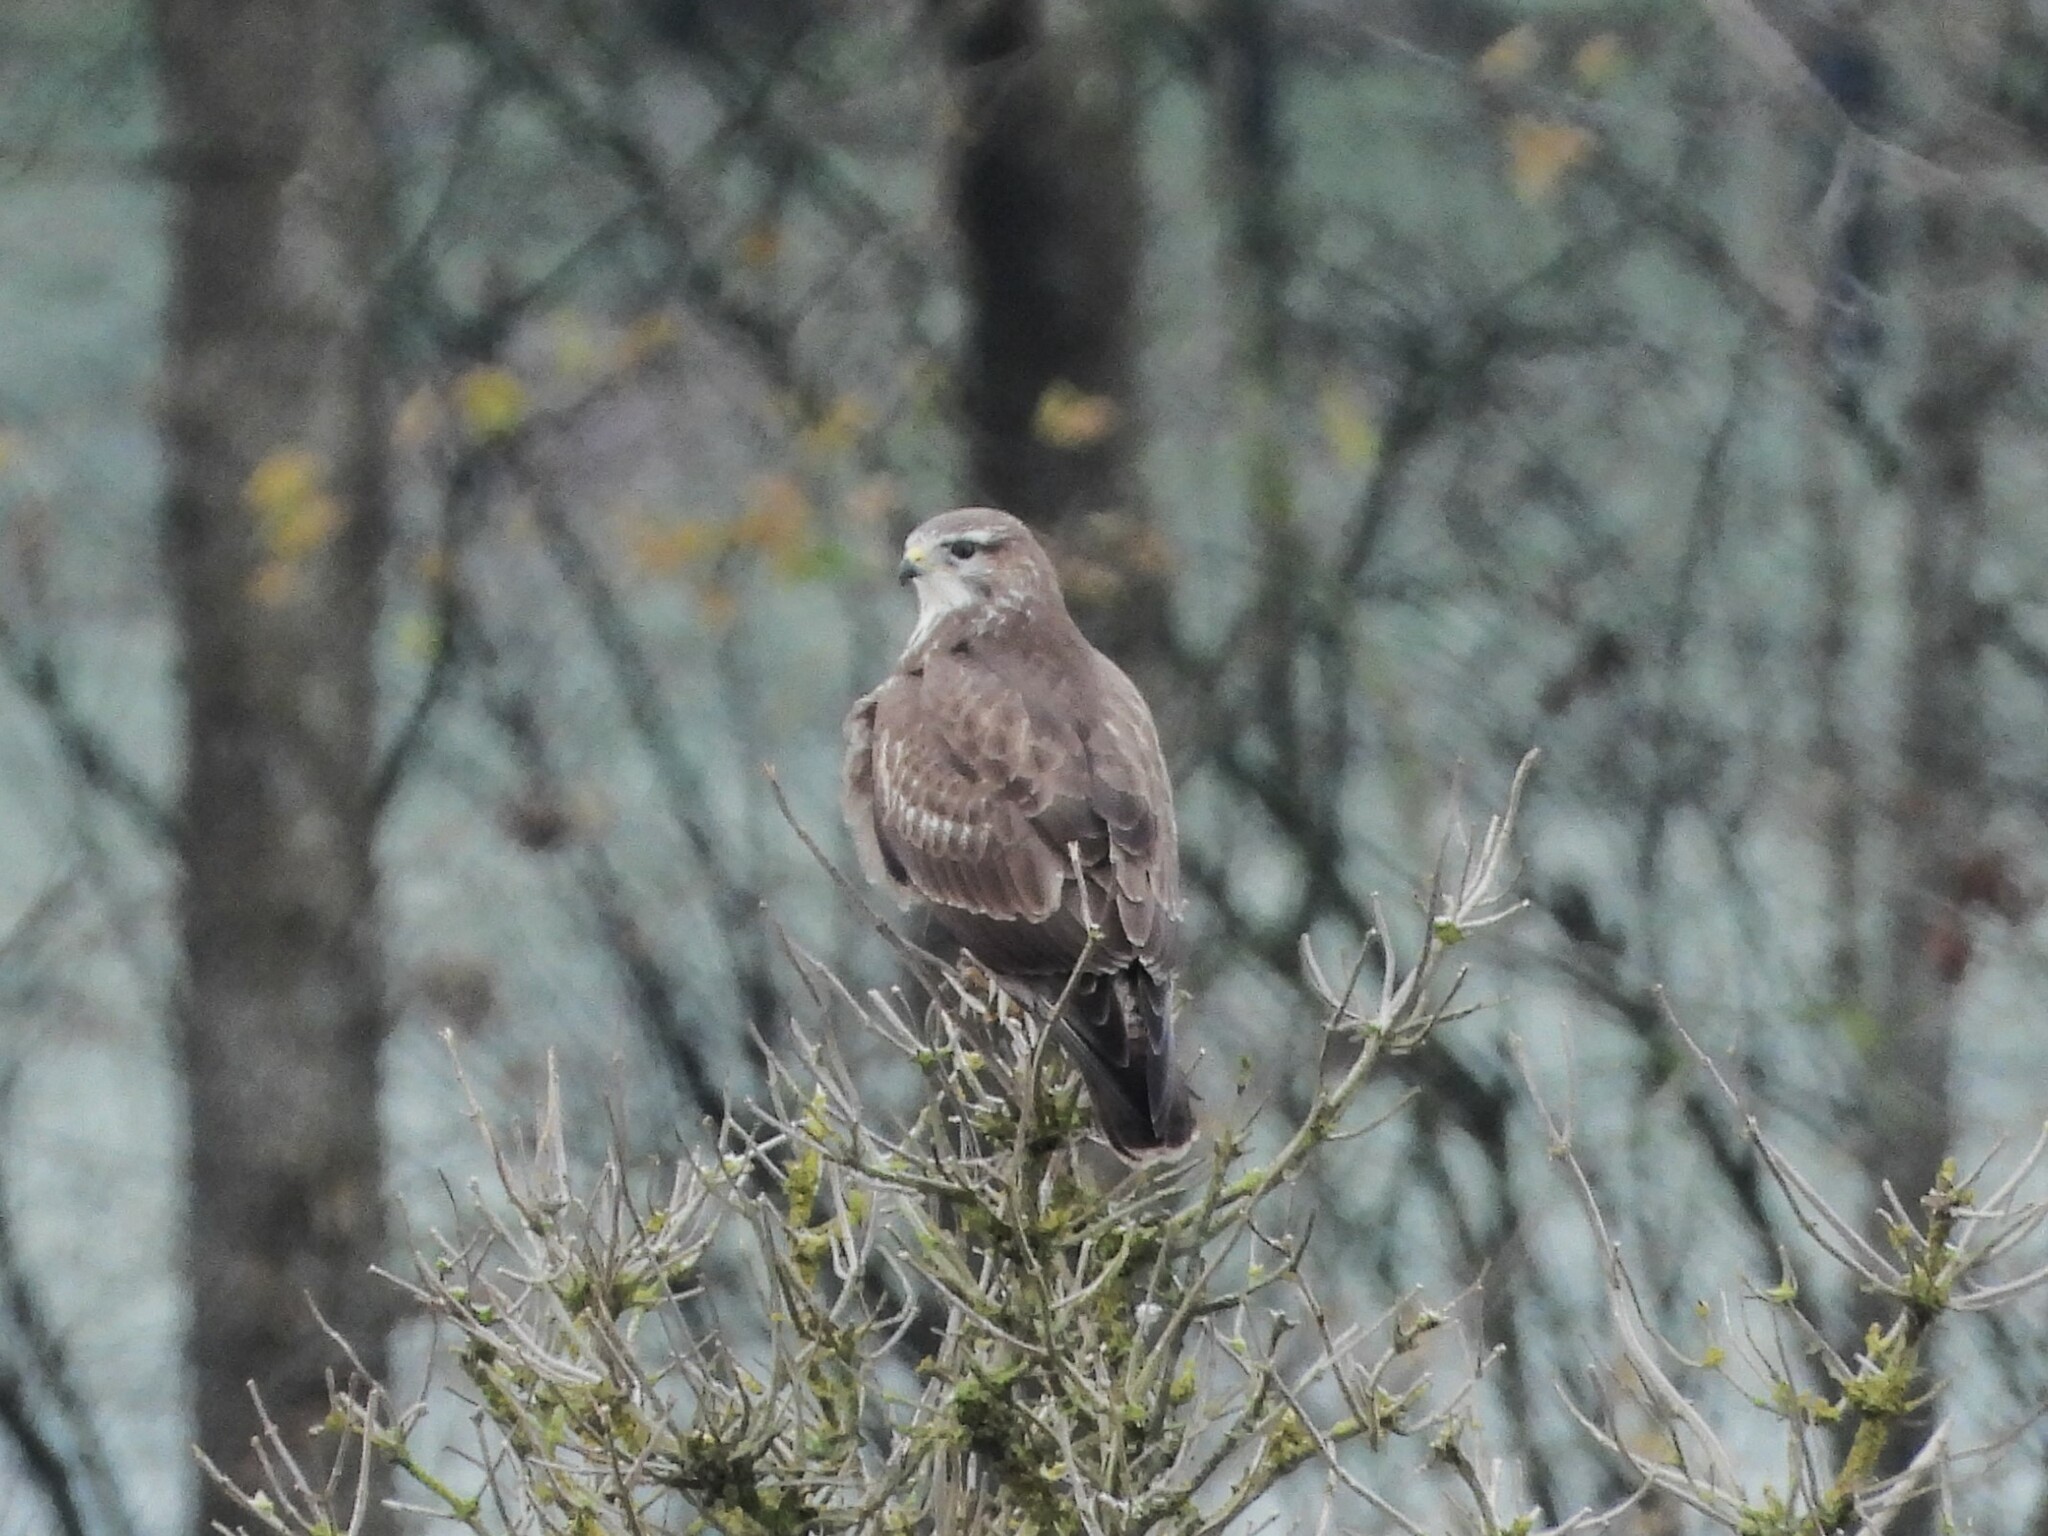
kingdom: Animalia
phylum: Chordata
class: Aves
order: Accipitriformes
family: Accipitridae
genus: Buteo
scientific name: Buteo buteo
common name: Common buzzard
